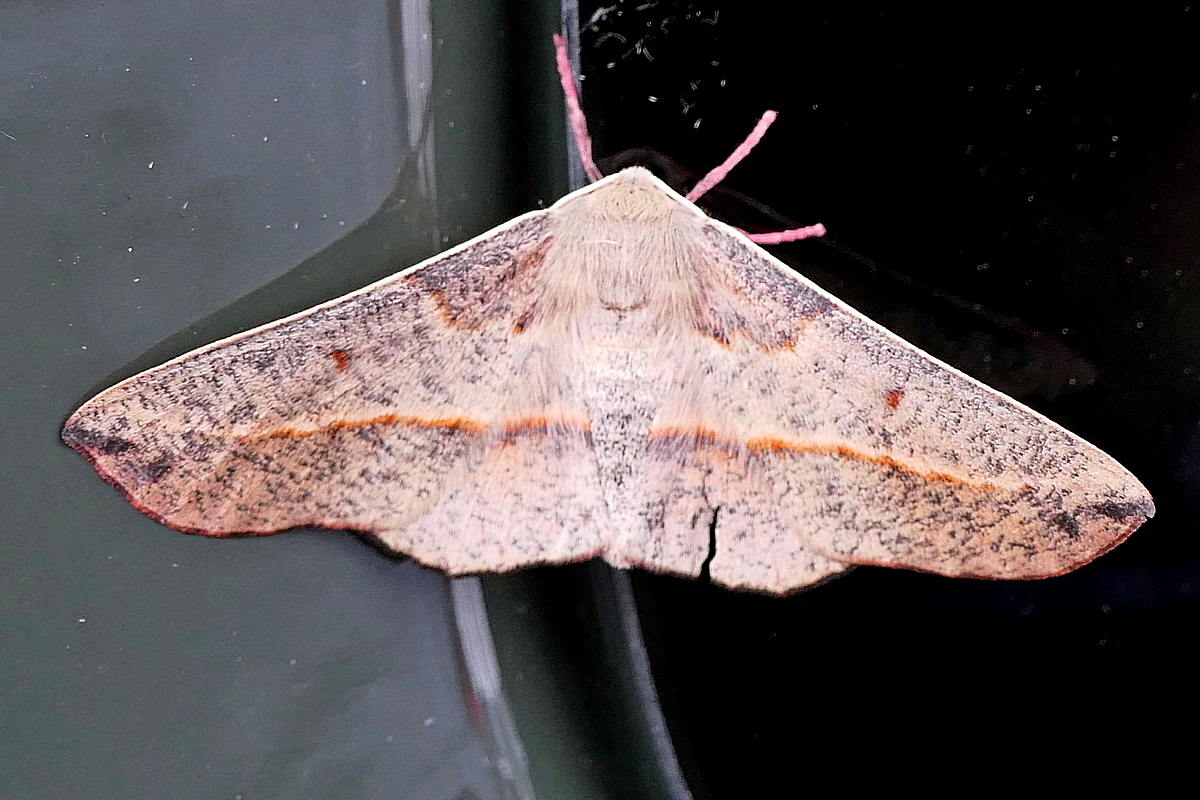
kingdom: Animalia
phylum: Arthropoda
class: Insecta
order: Lepidoptera
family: Geometridae
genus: Antictenia
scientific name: Antictenia punctunculus
